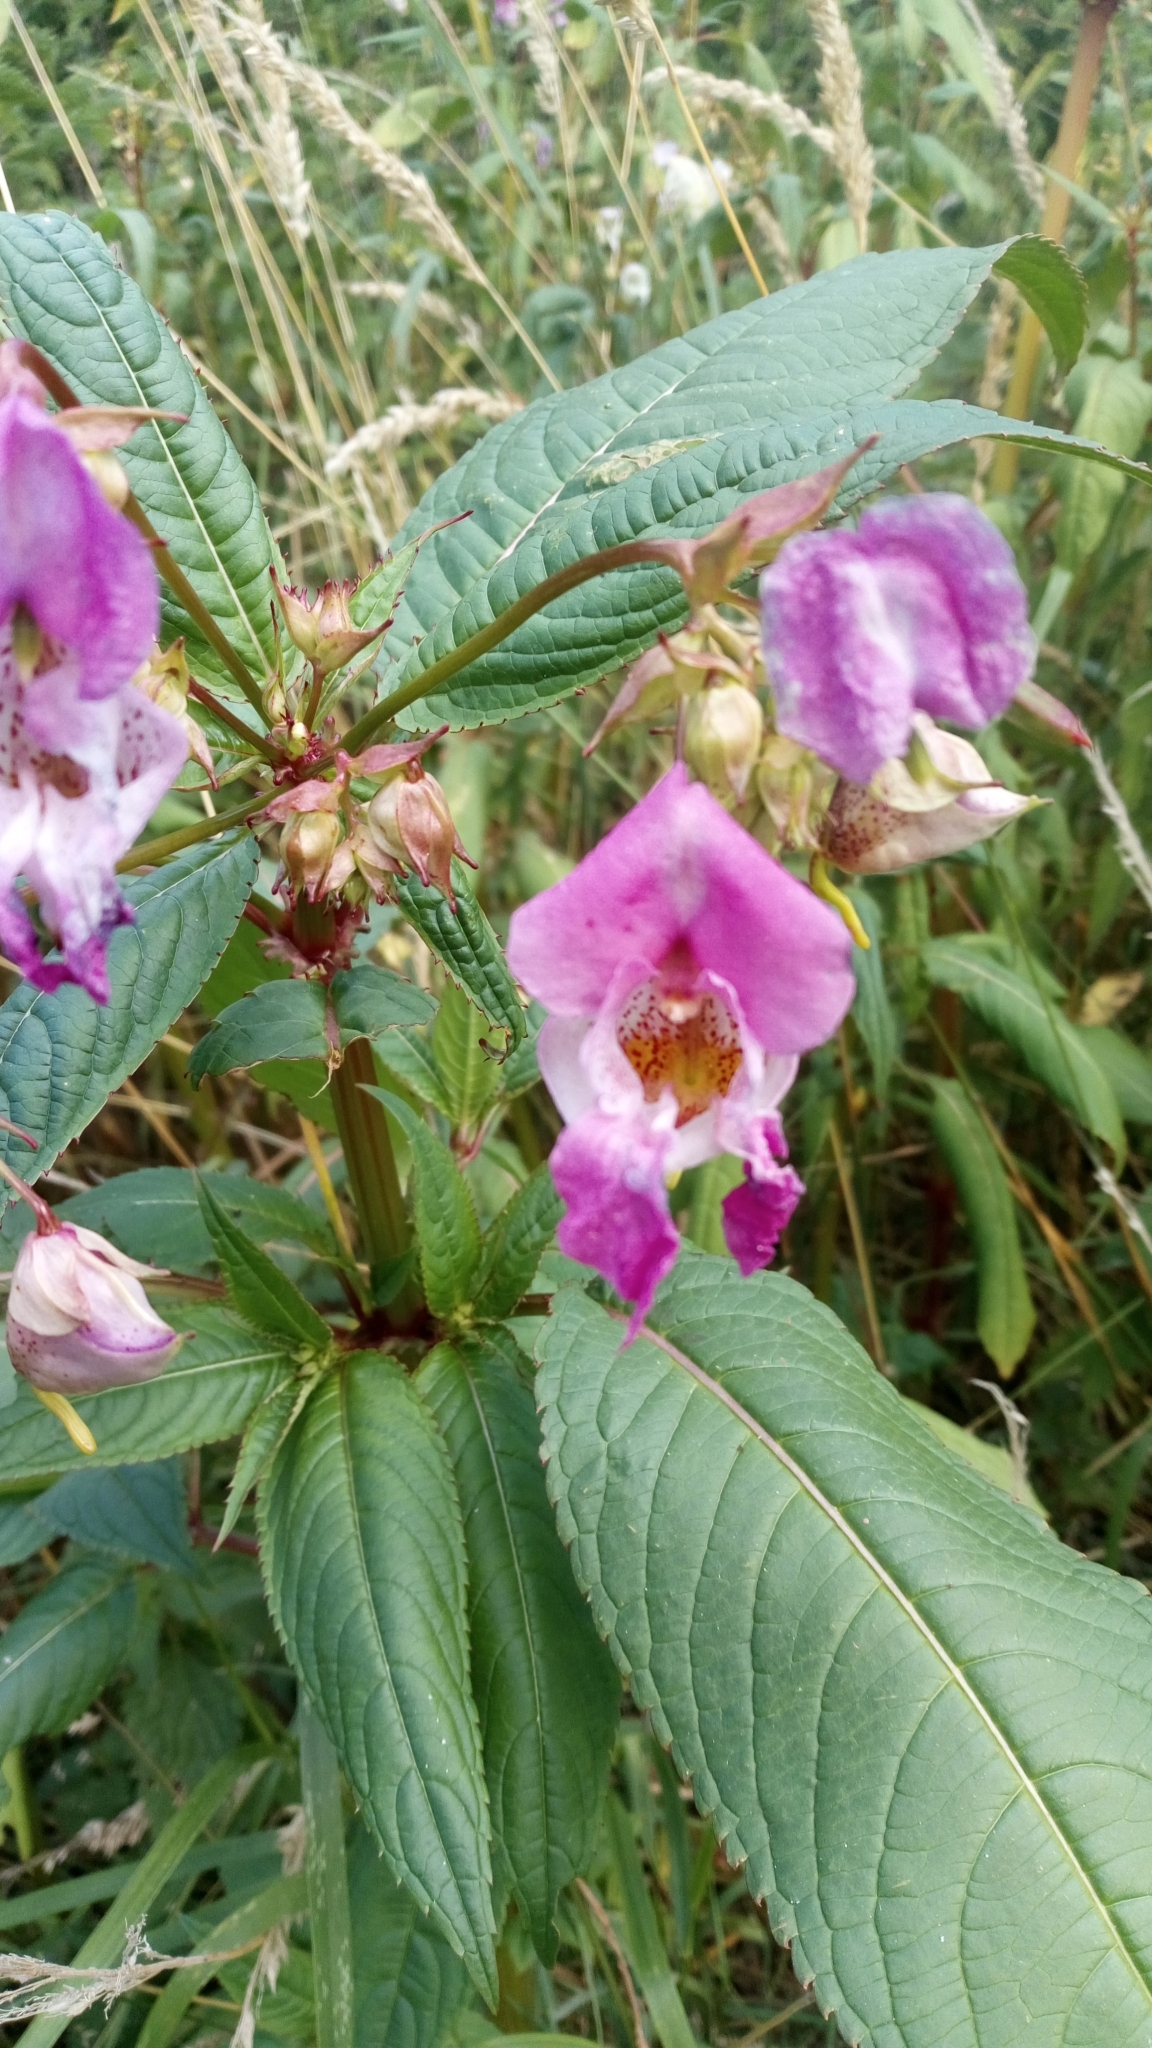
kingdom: Plantae
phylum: Tracheophyta
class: Magnoliopsida
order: Ericales
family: Balsaminaceae
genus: Impatiens
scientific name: Impatiens glandulifera
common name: Himalayan balsam
